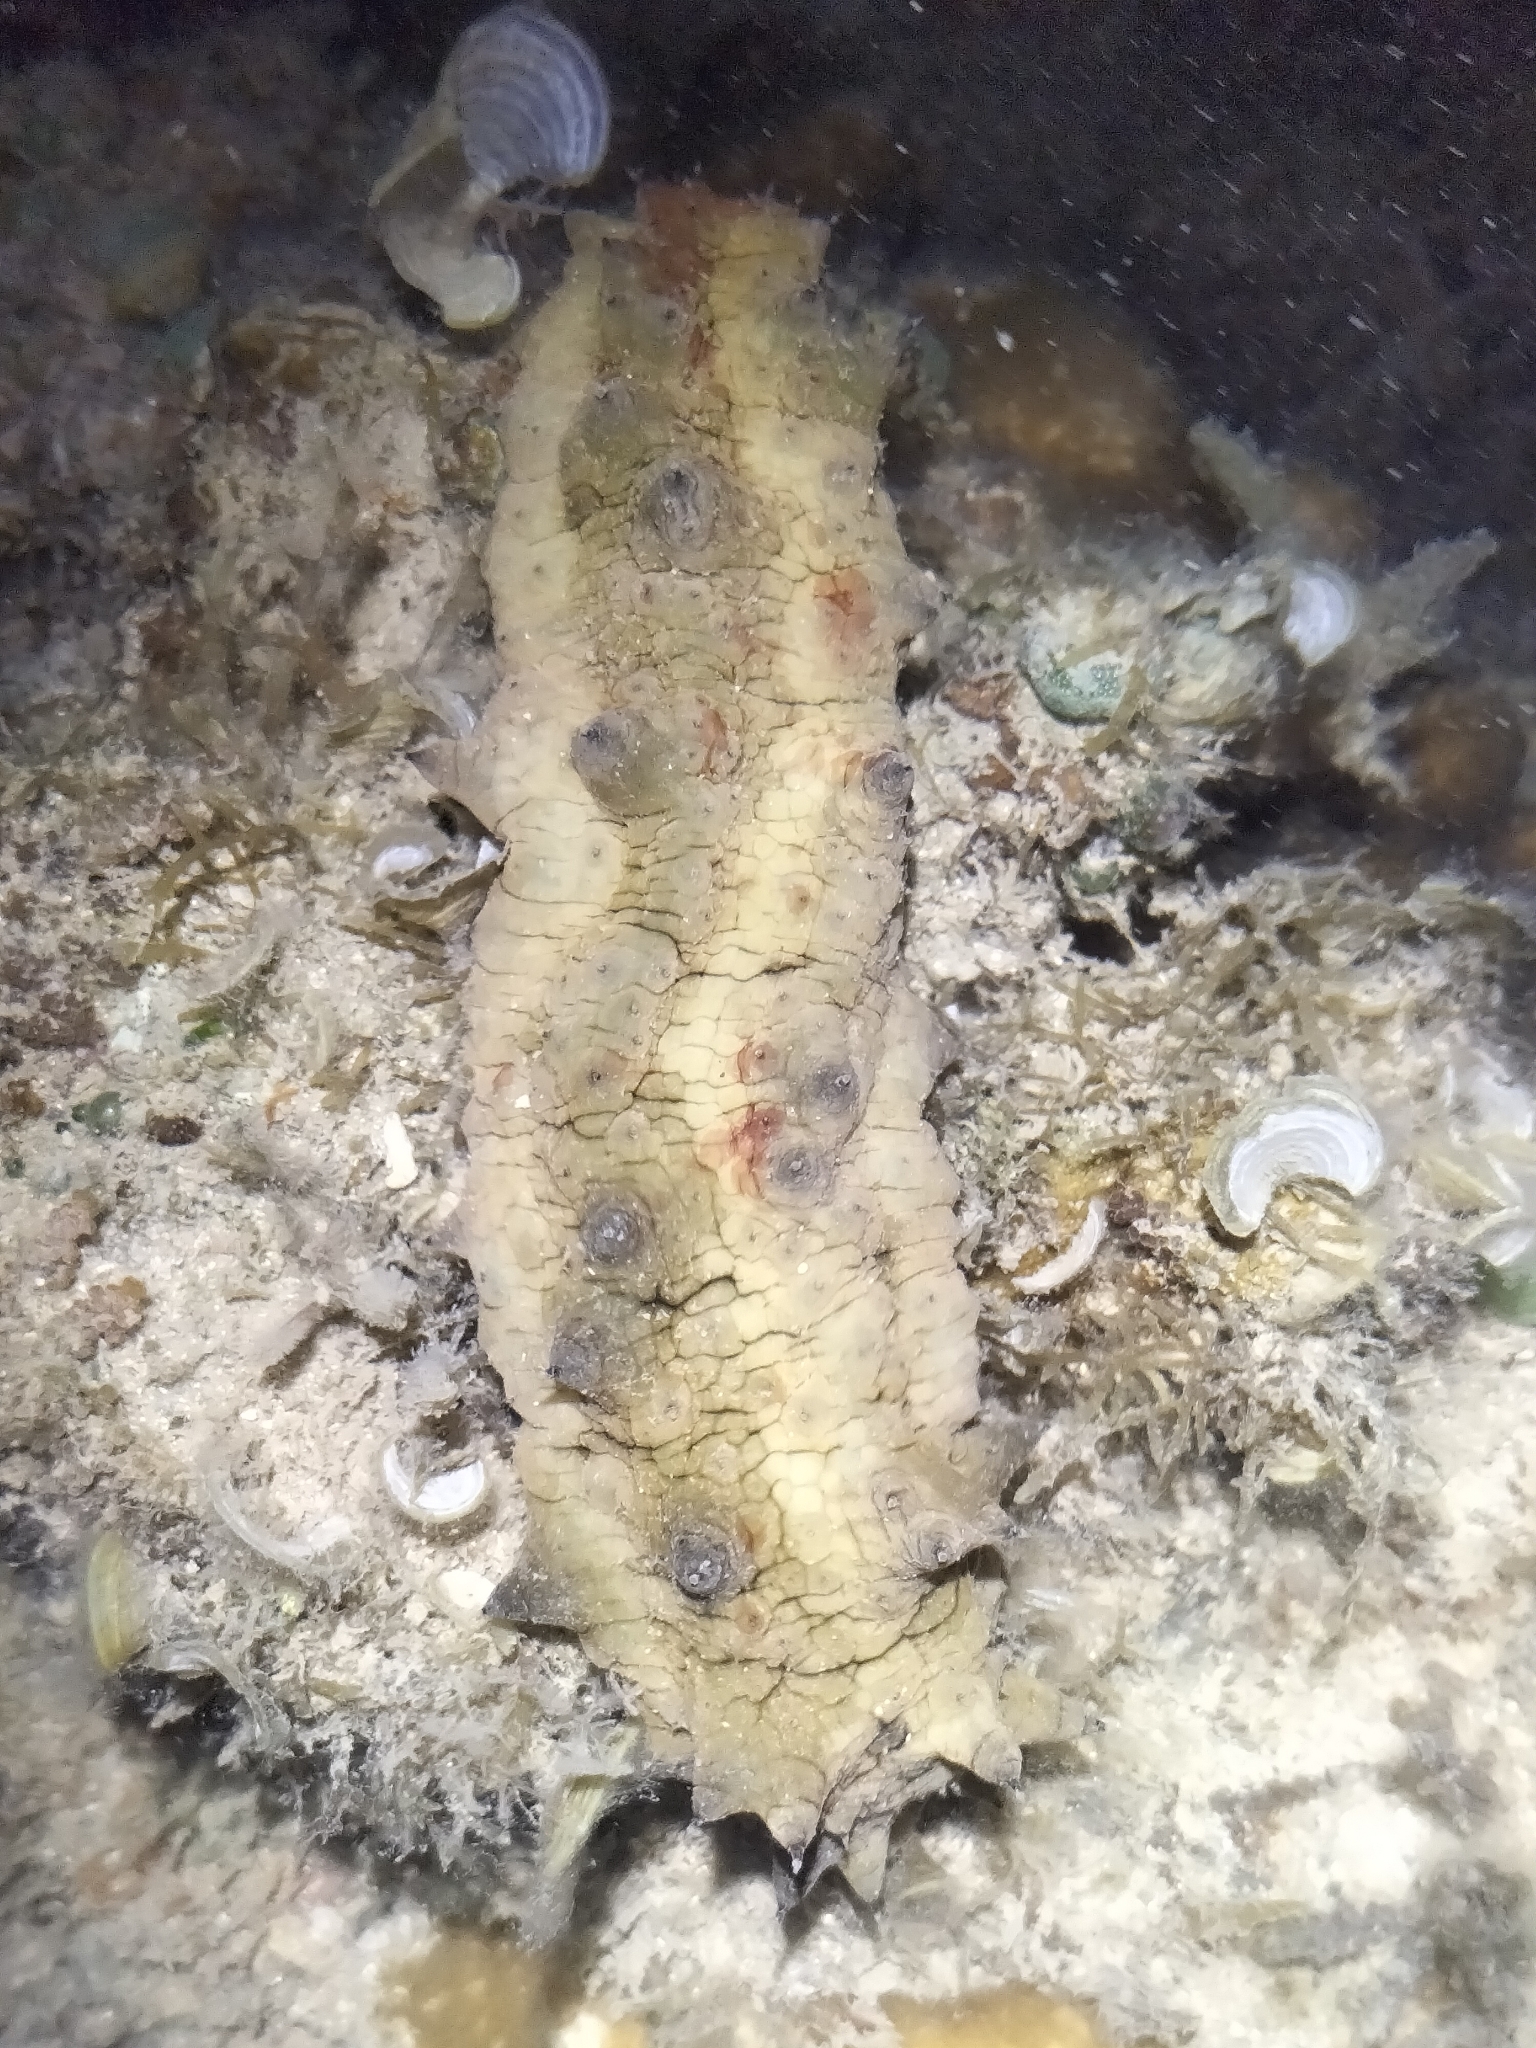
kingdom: Animalia
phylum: Echinodermata
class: Holothuroidea
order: Synallactida
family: Stichopodidae
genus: Stichopus
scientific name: Stichopus horrens
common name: Dragonfish
